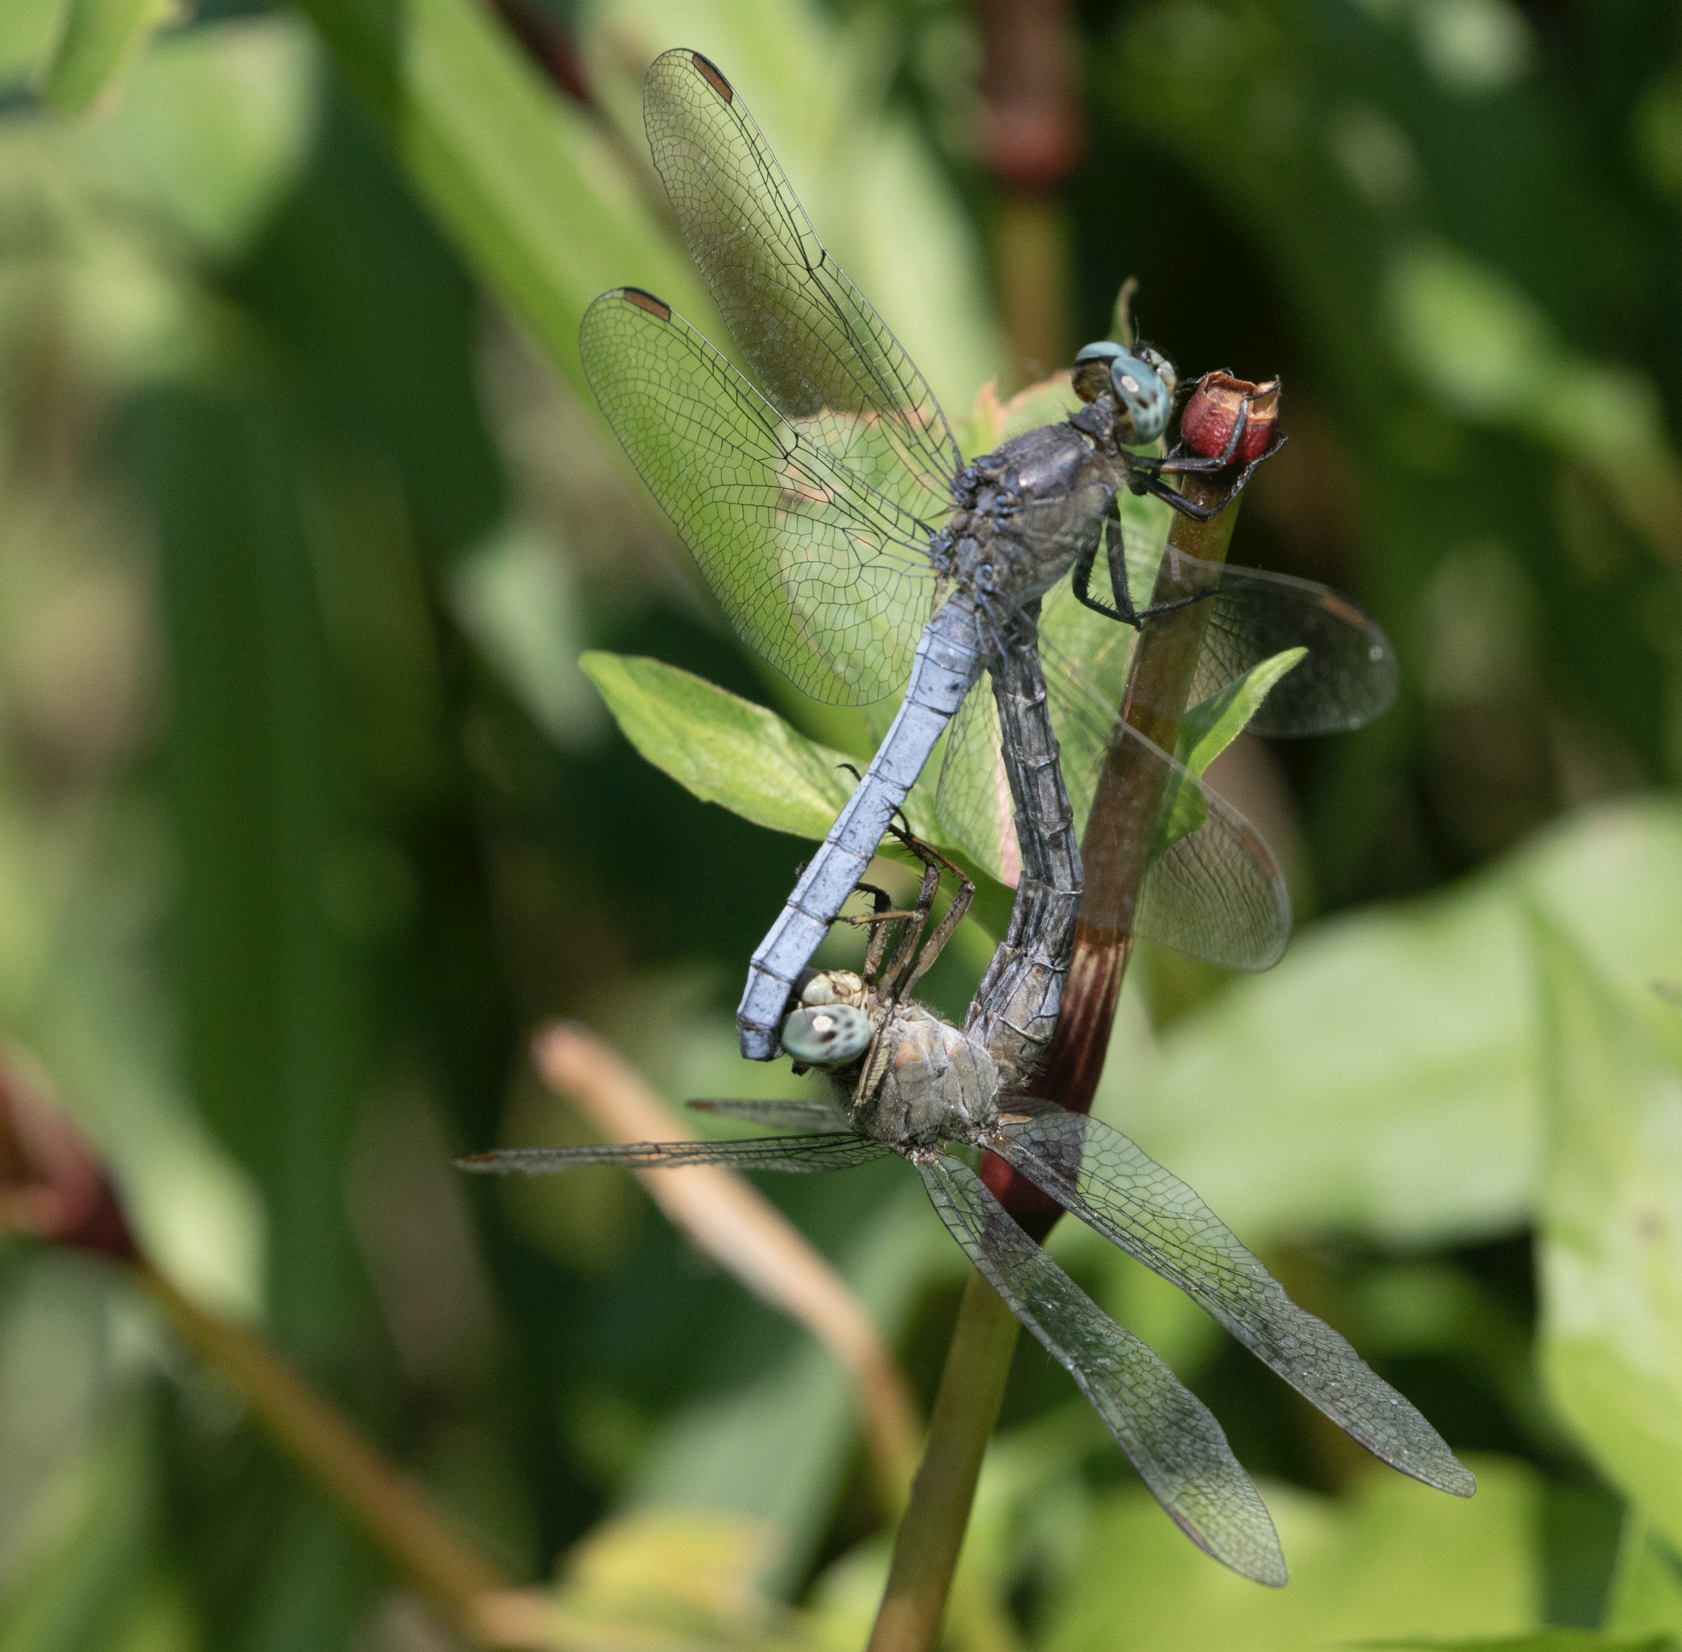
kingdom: Animalia
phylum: Arthropoda
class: Insecta
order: Odonata
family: Libellulidae
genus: Orthetrum
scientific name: Orthetrum coerulescens
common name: Keeled skimmer
